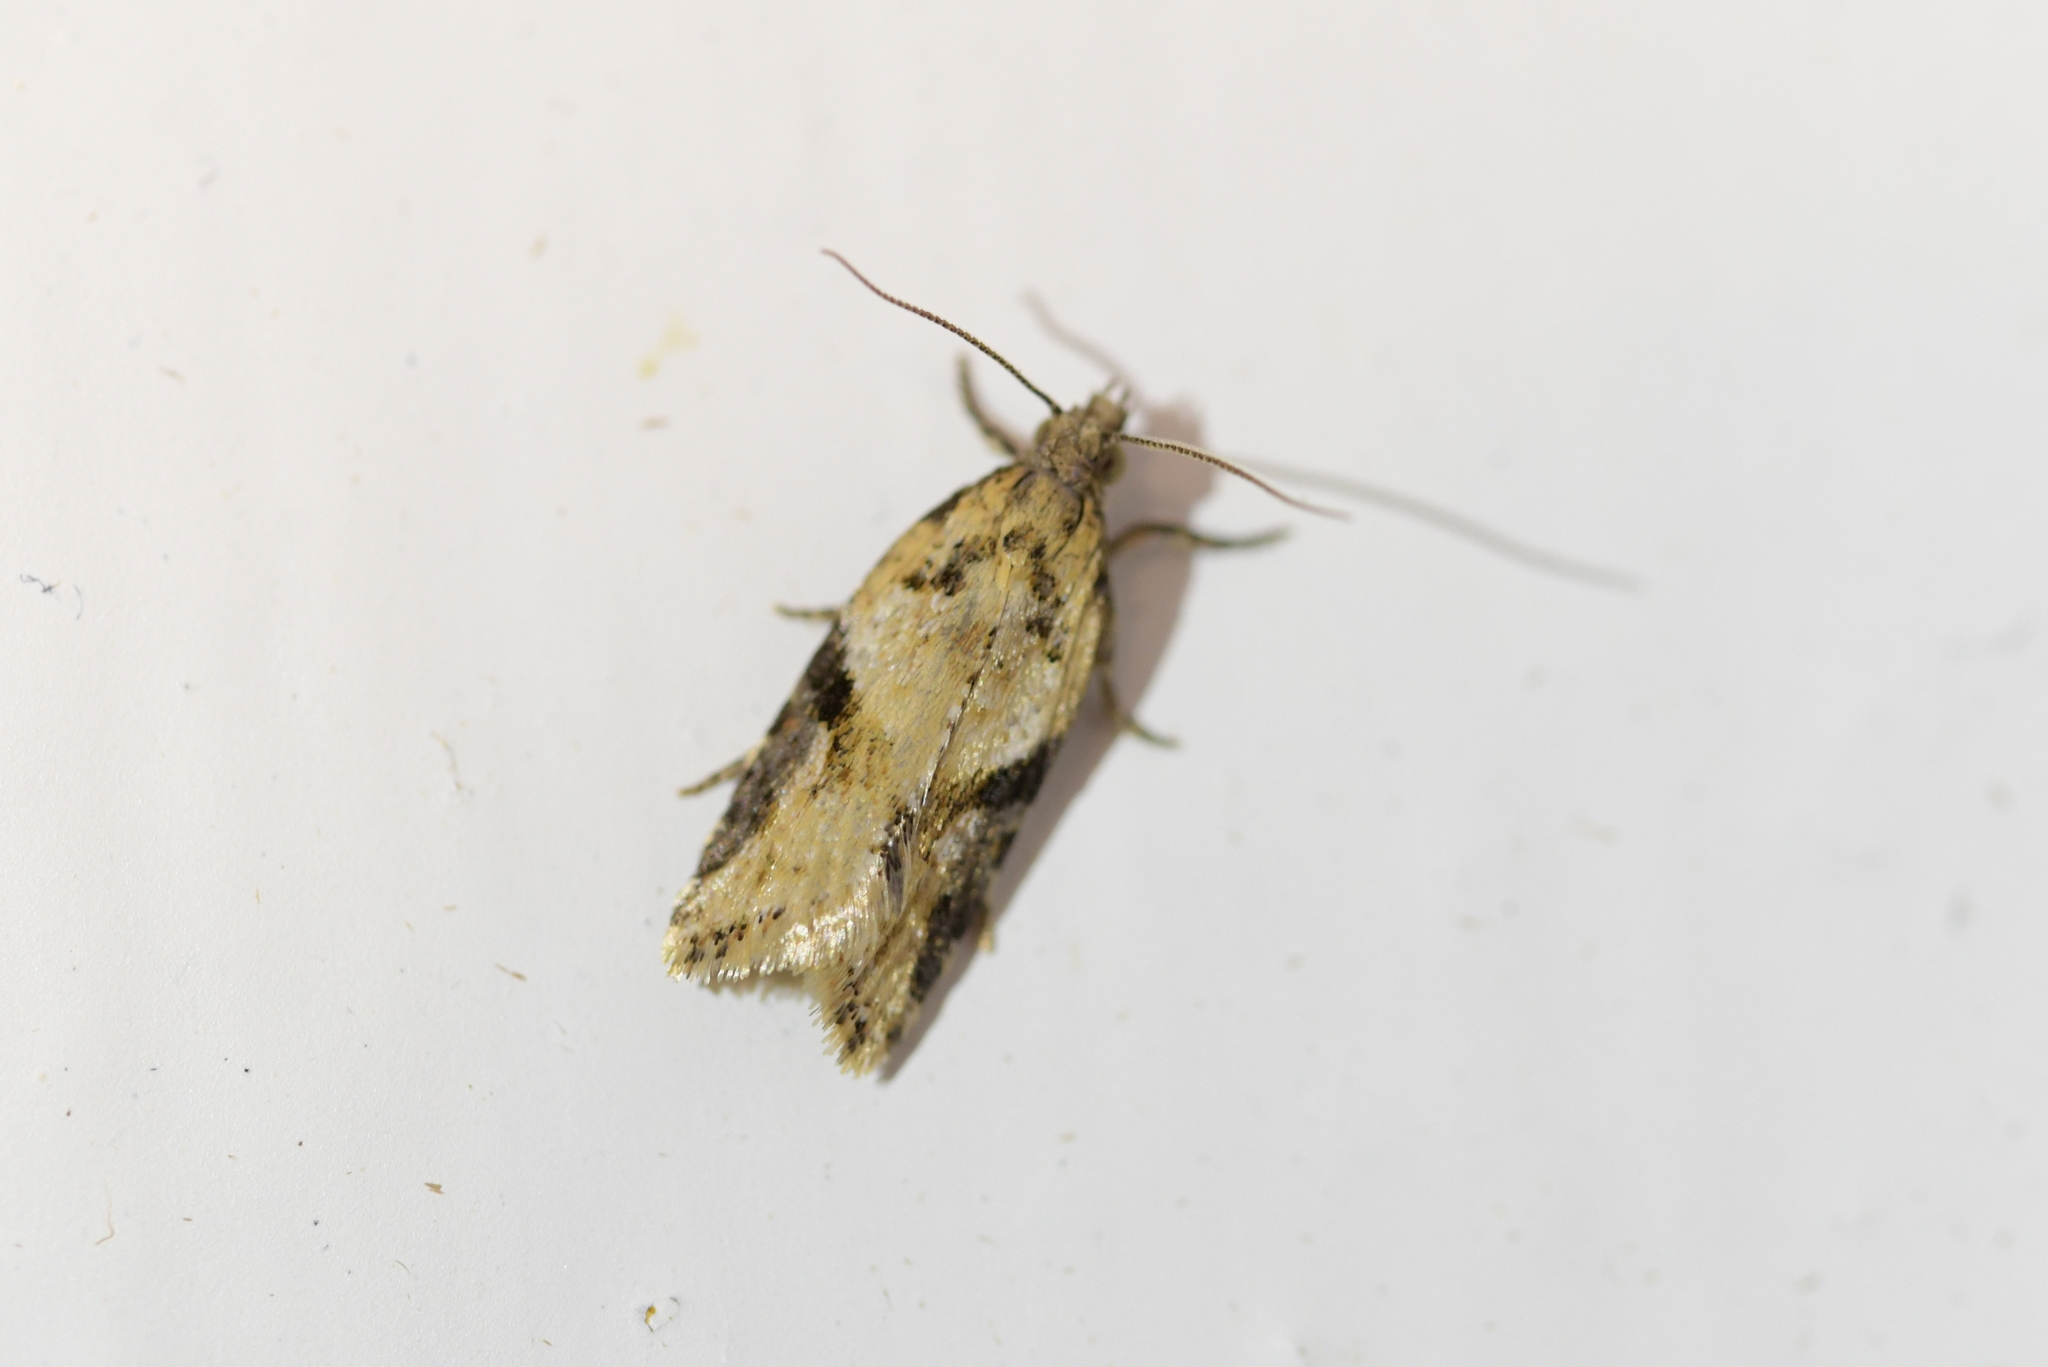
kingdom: Animalia
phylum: Arthropoda
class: Insecta
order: Lepidoptera
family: Tortricidae
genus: Capua
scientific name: Capua semiferana
